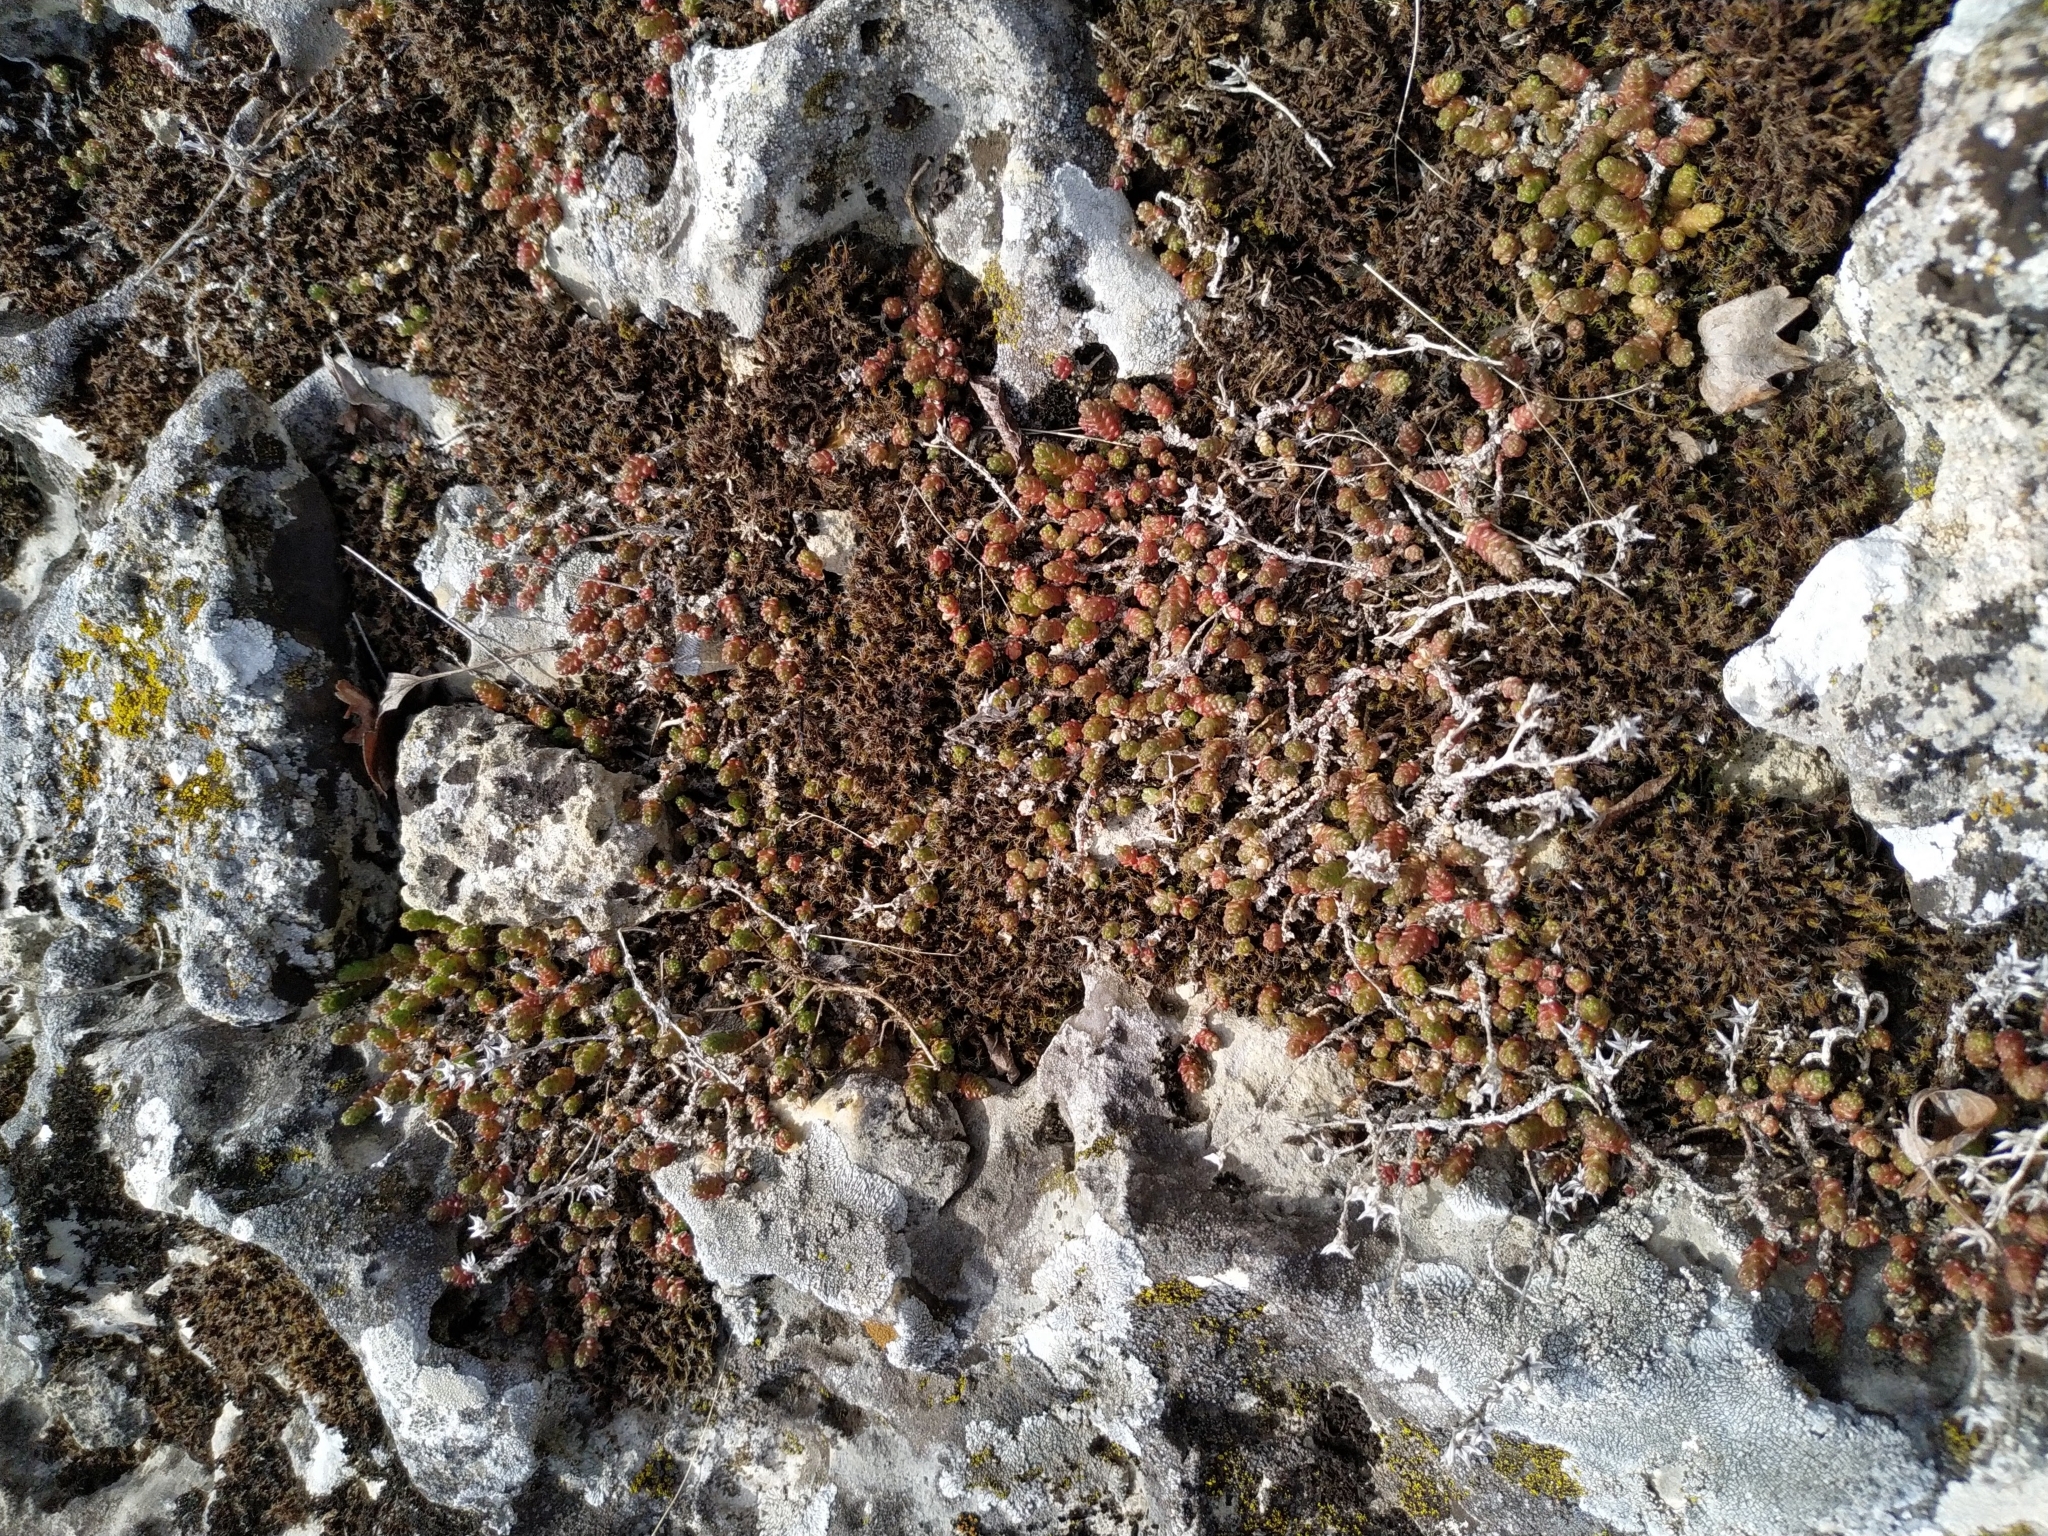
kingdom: Plantae
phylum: Tracheophyta
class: Magnoliopsida
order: Saxifragales
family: Crassulaceae
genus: Sedum
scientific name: Sedum acre
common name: Biting stonecrop
